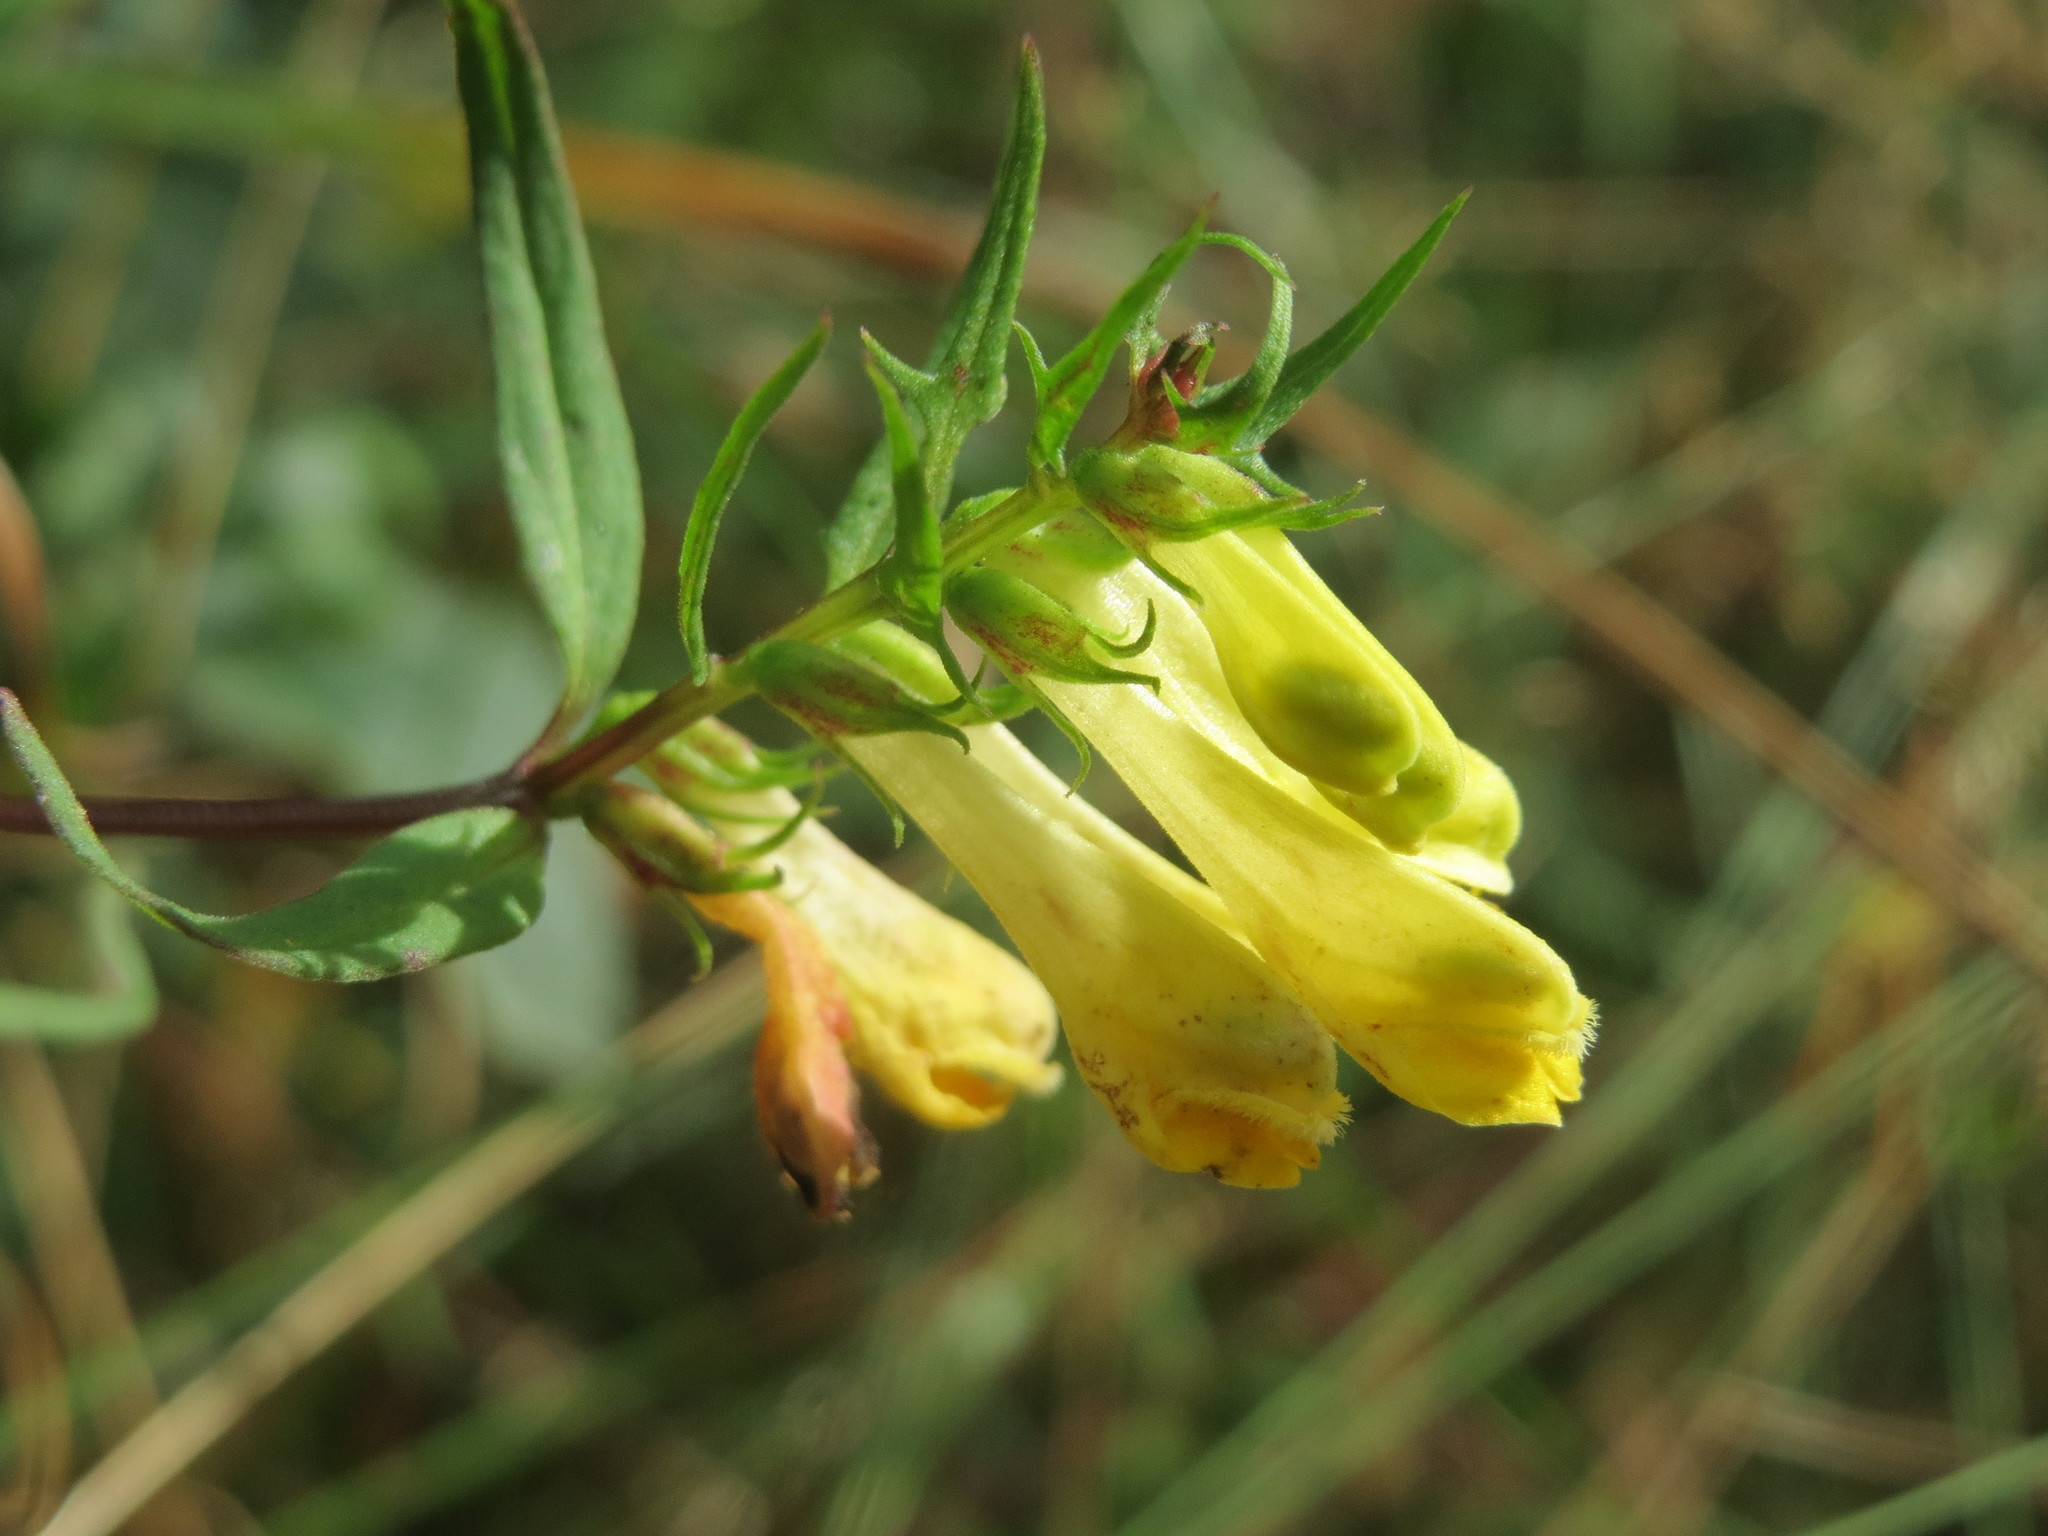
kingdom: Plantae
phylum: Tracheophyta
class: Magnoliopsida
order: Lamiales
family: Orobanchaceae
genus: Melampyrum
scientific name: Melampyrum pratense
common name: Common cow-wheat
